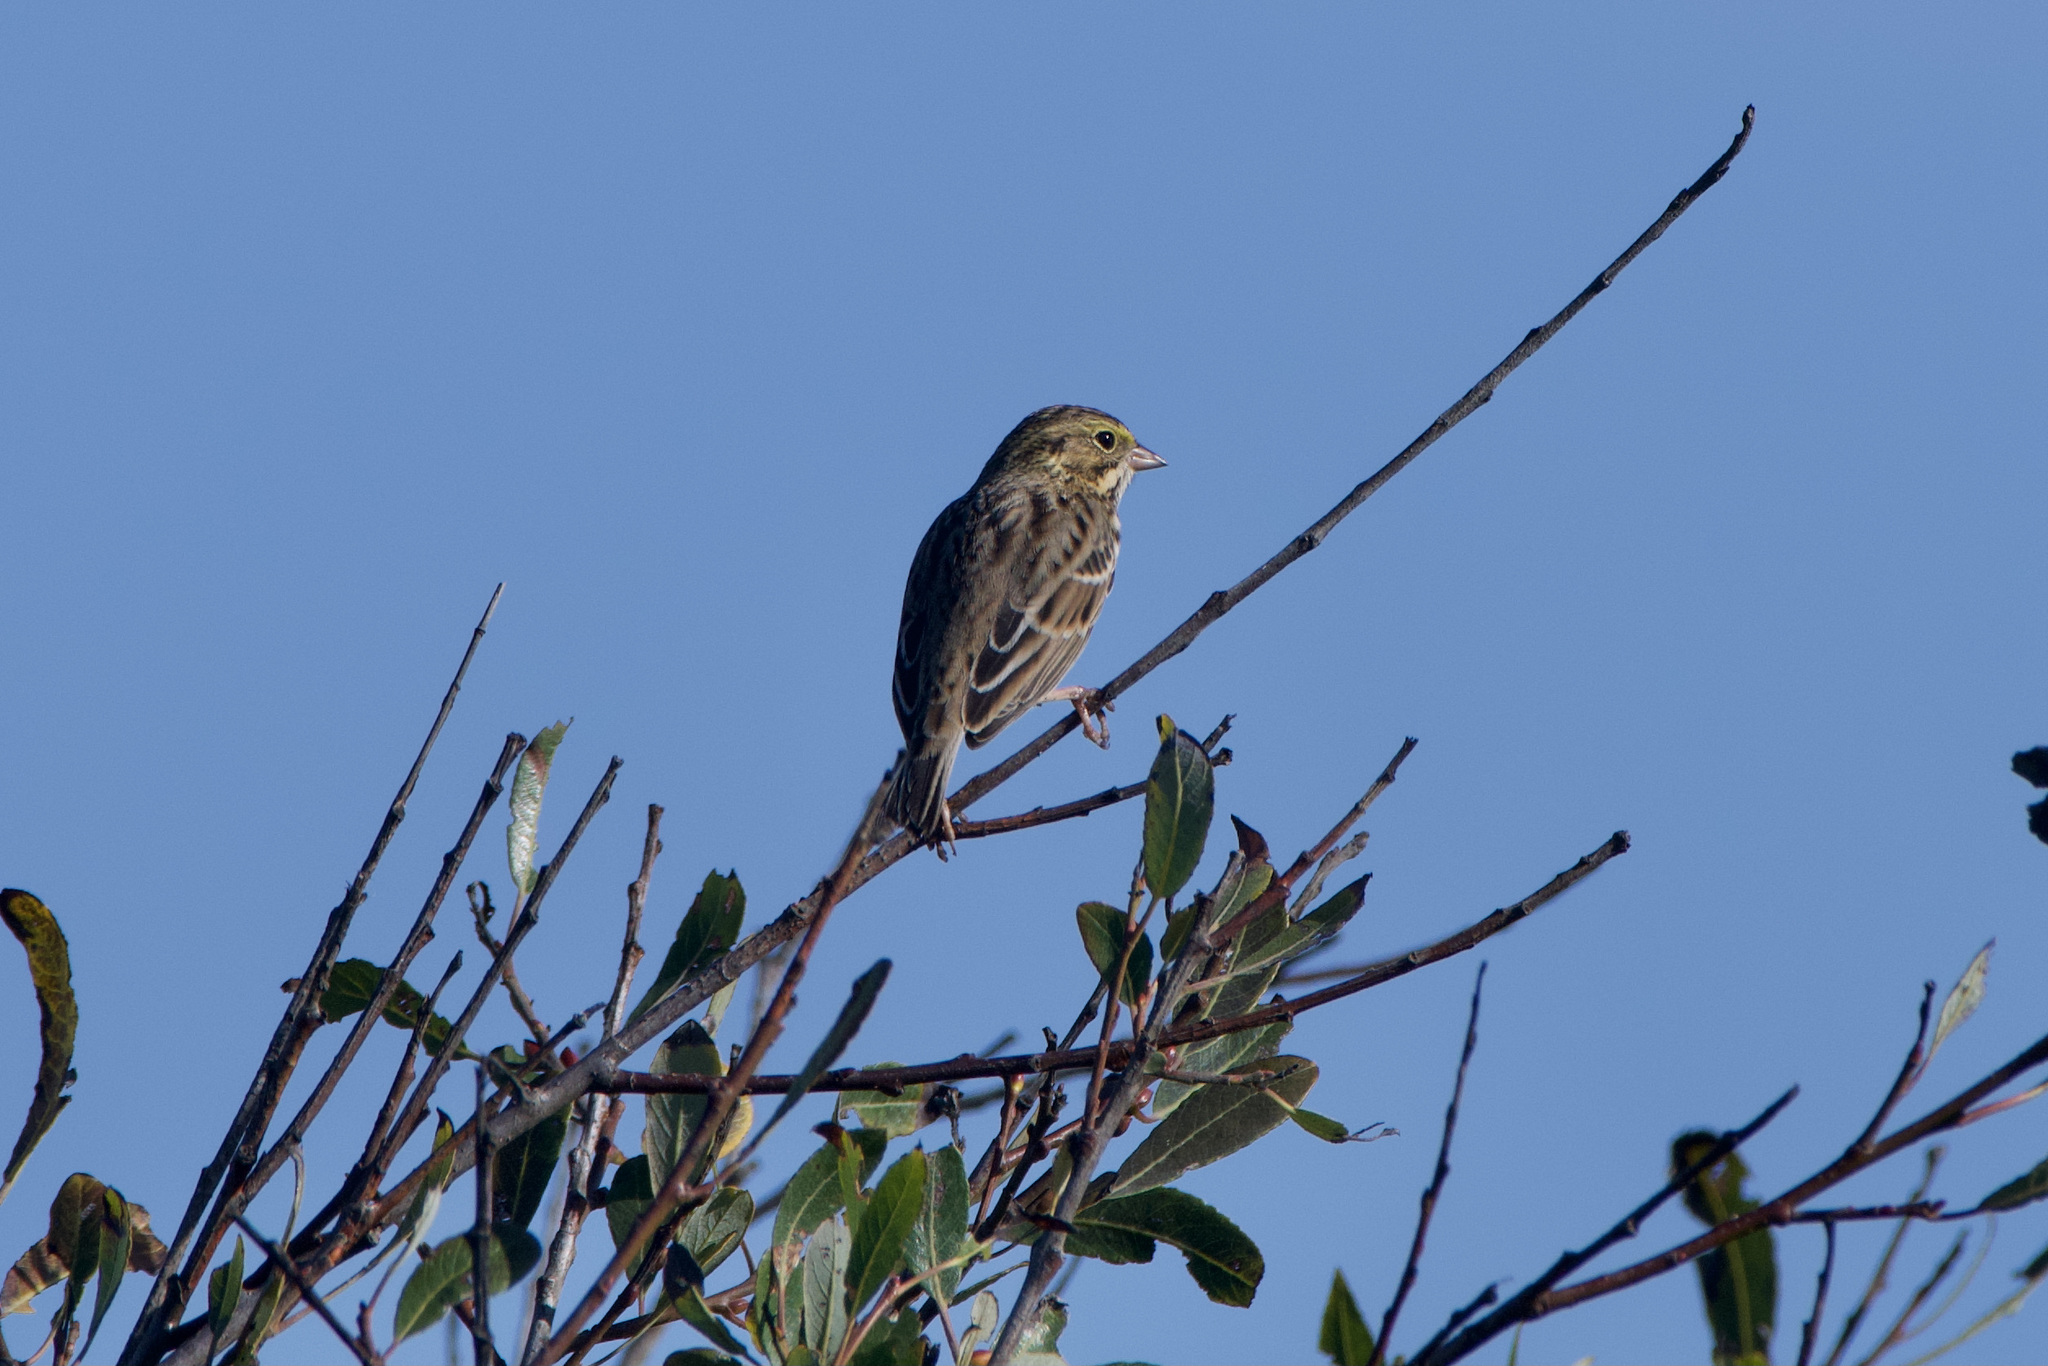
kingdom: Animalia
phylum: Chordata
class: Aves
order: Passeriformes
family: Passerellidae
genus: Passerculus
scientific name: Passerculus sandwichensis
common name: Savannah sparrow
